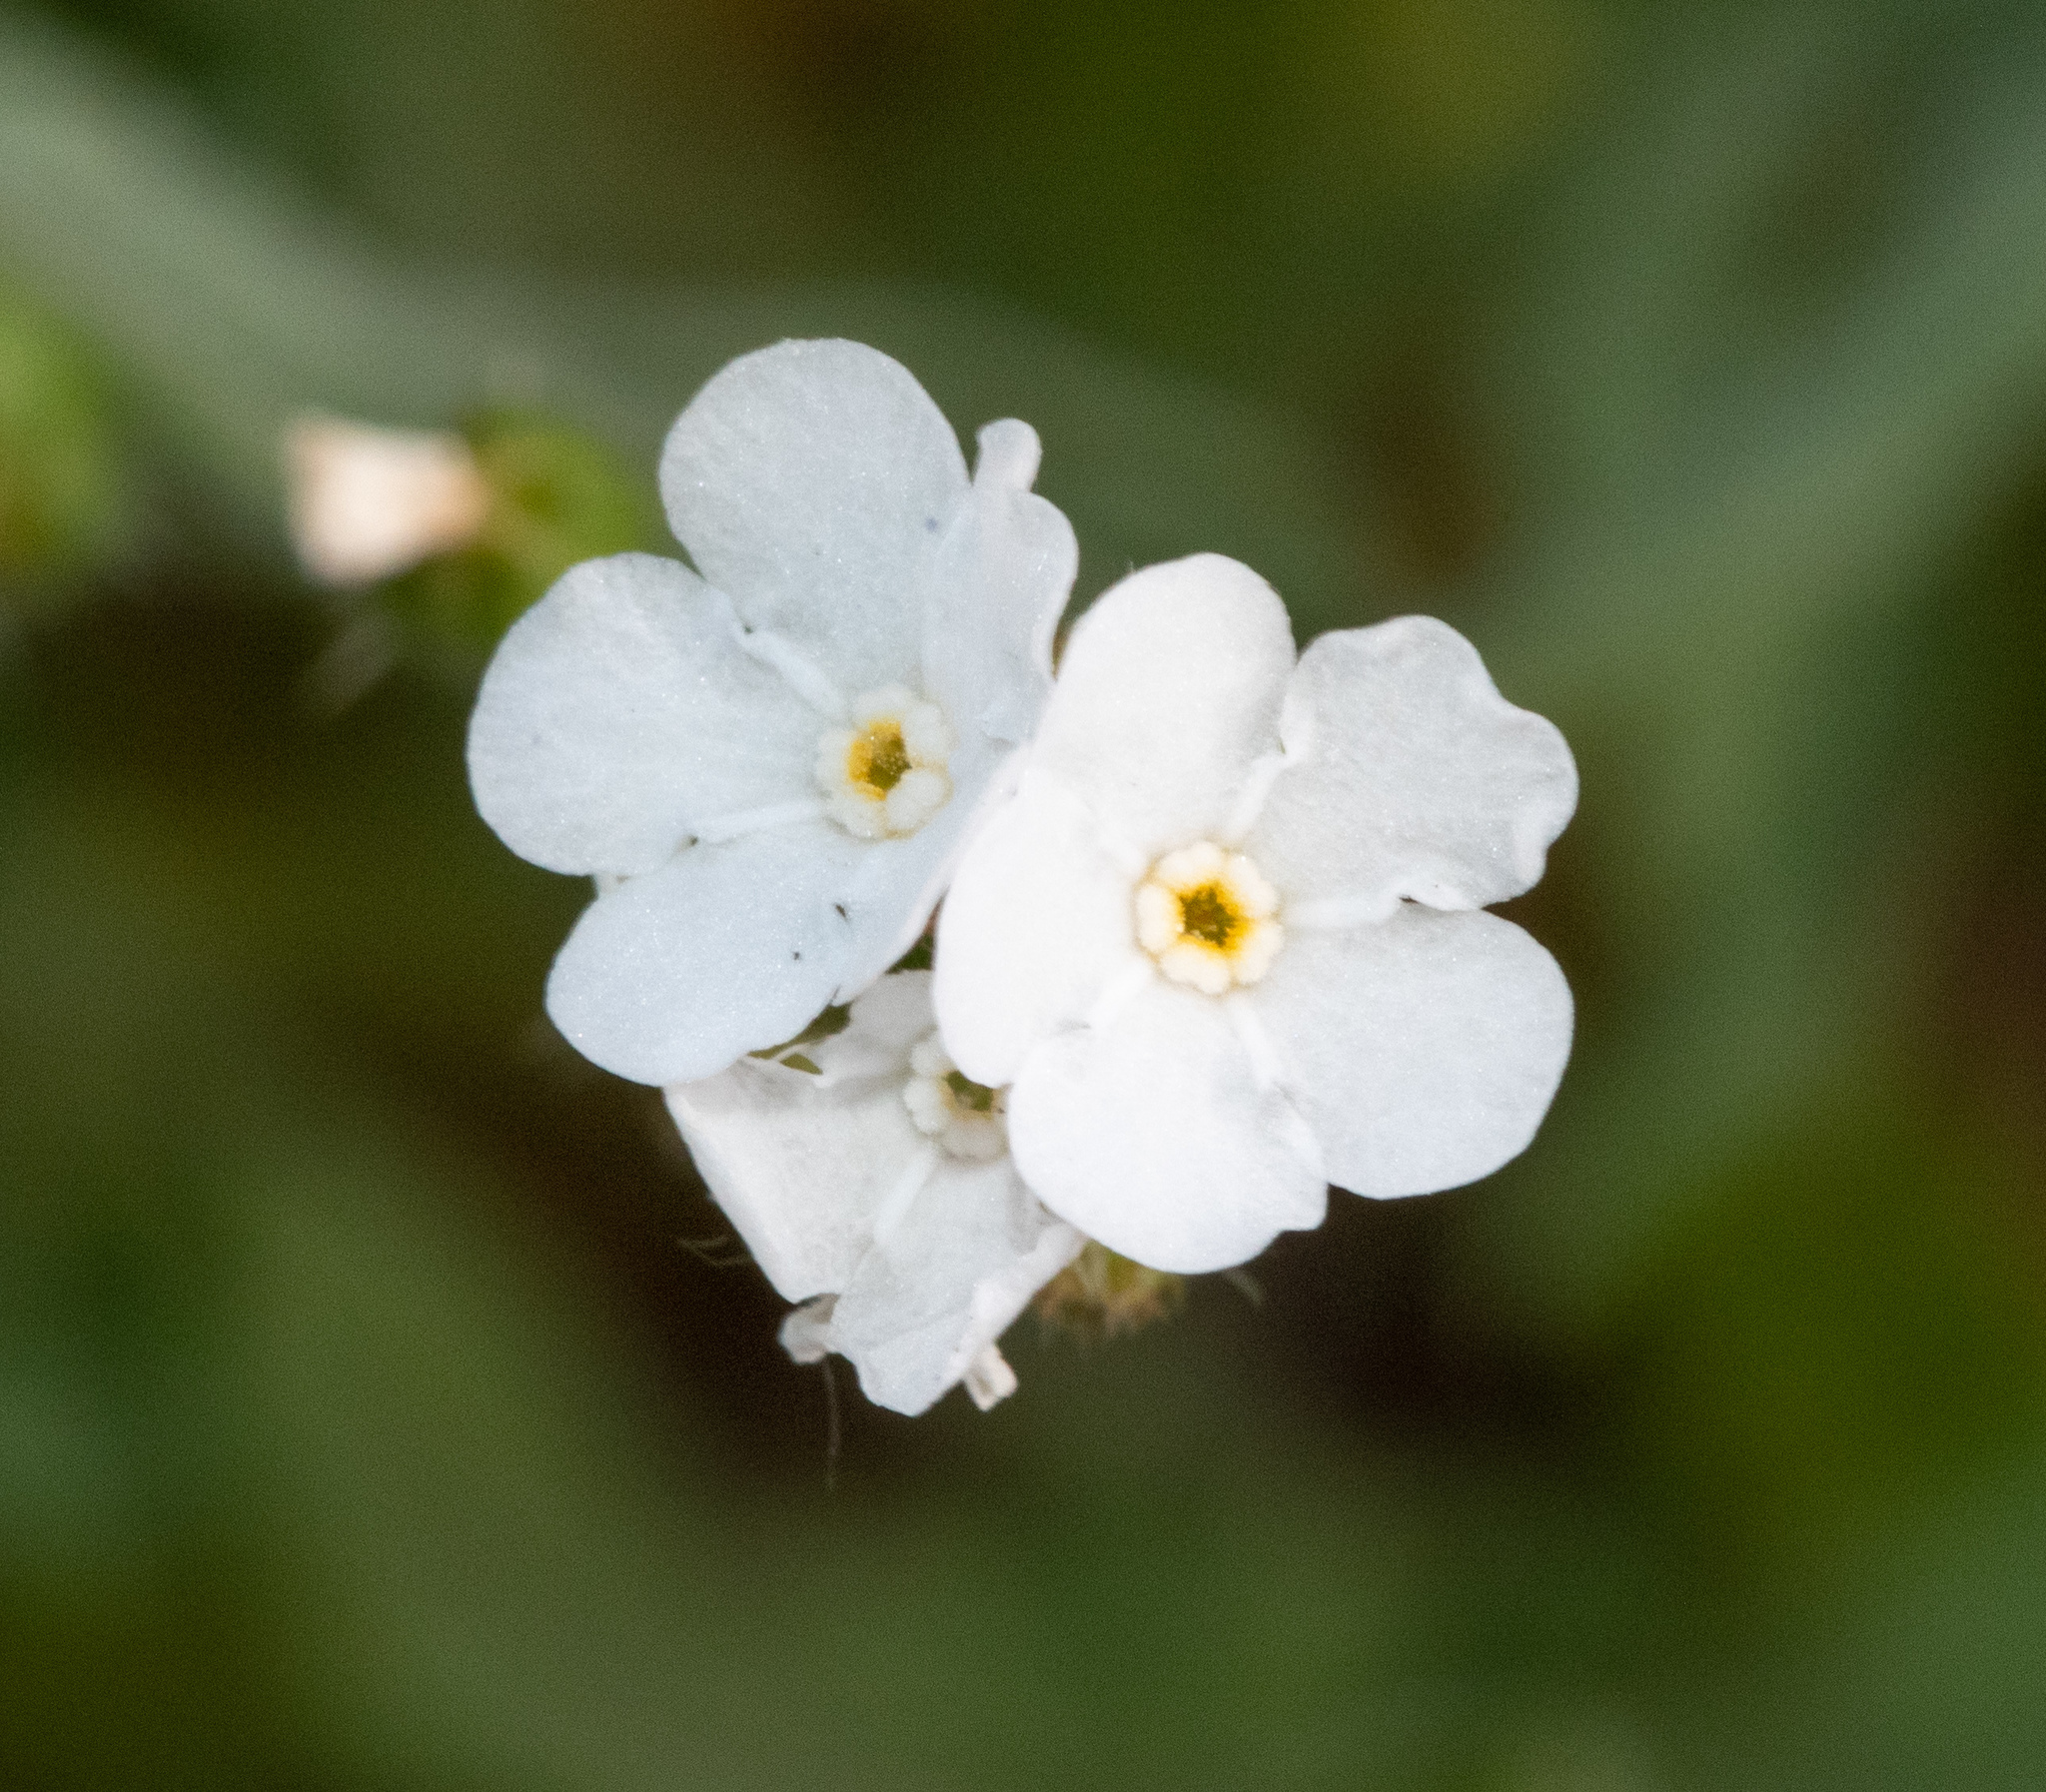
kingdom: Plantae
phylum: Tracheophyta
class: Magnoliopsida
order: Boraginales
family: Boraginaceae
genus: Plagiobothrys
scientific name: Plagiobothrys nothofulvus
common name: Popcorn-flower
